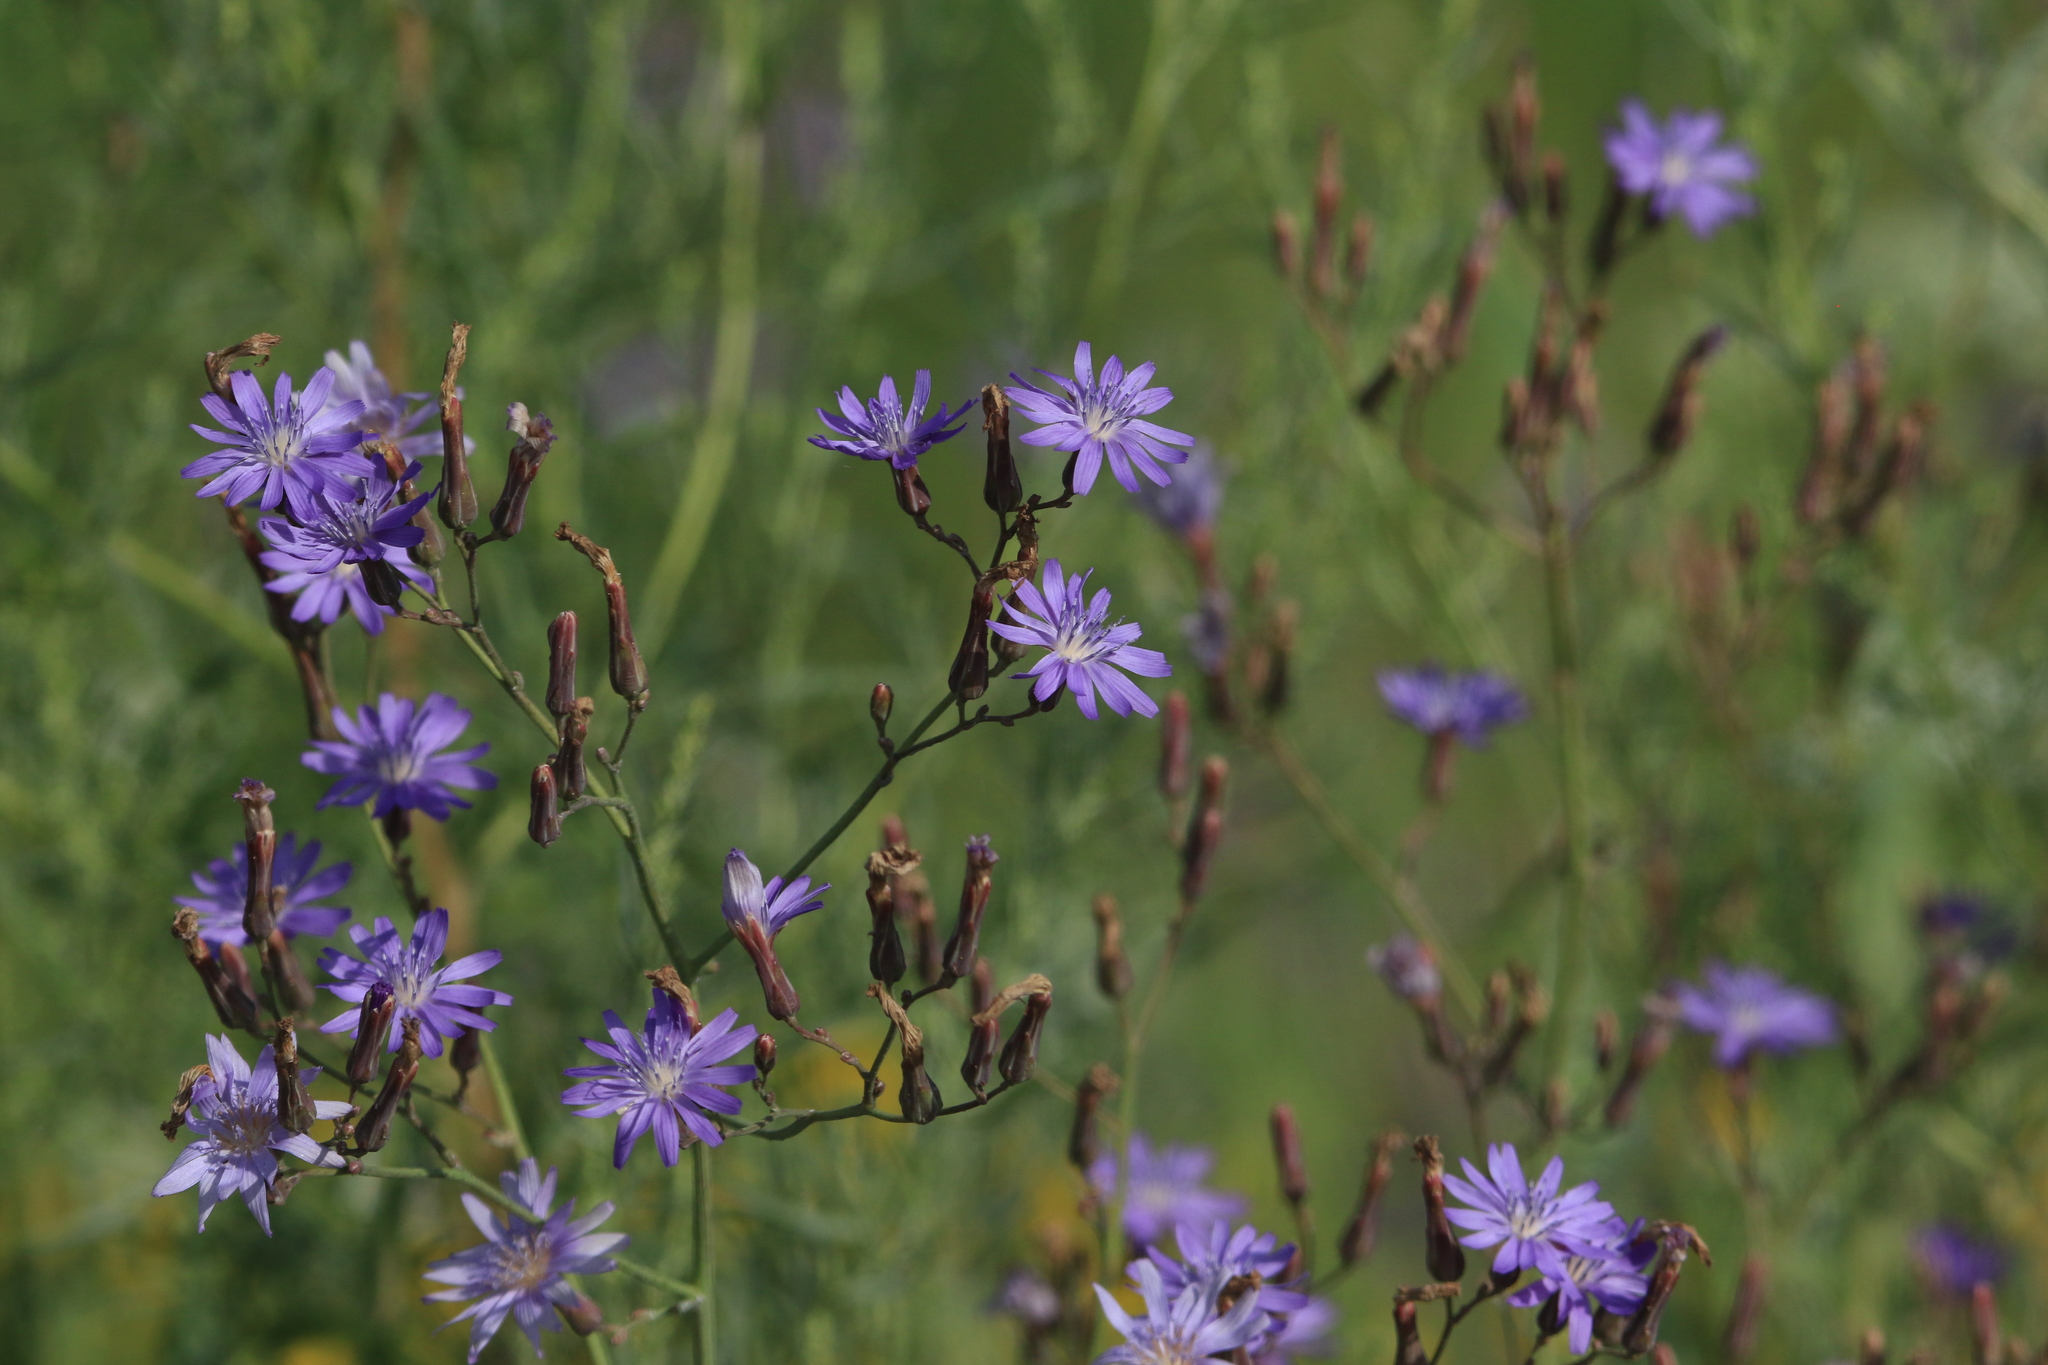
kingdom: Plantae
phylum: Tracheophyta
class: Magnoliopsida
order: Asterales
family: Asteraceae
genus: Lactuca
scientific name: Lactuca tatarica
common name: Blue lettuce
